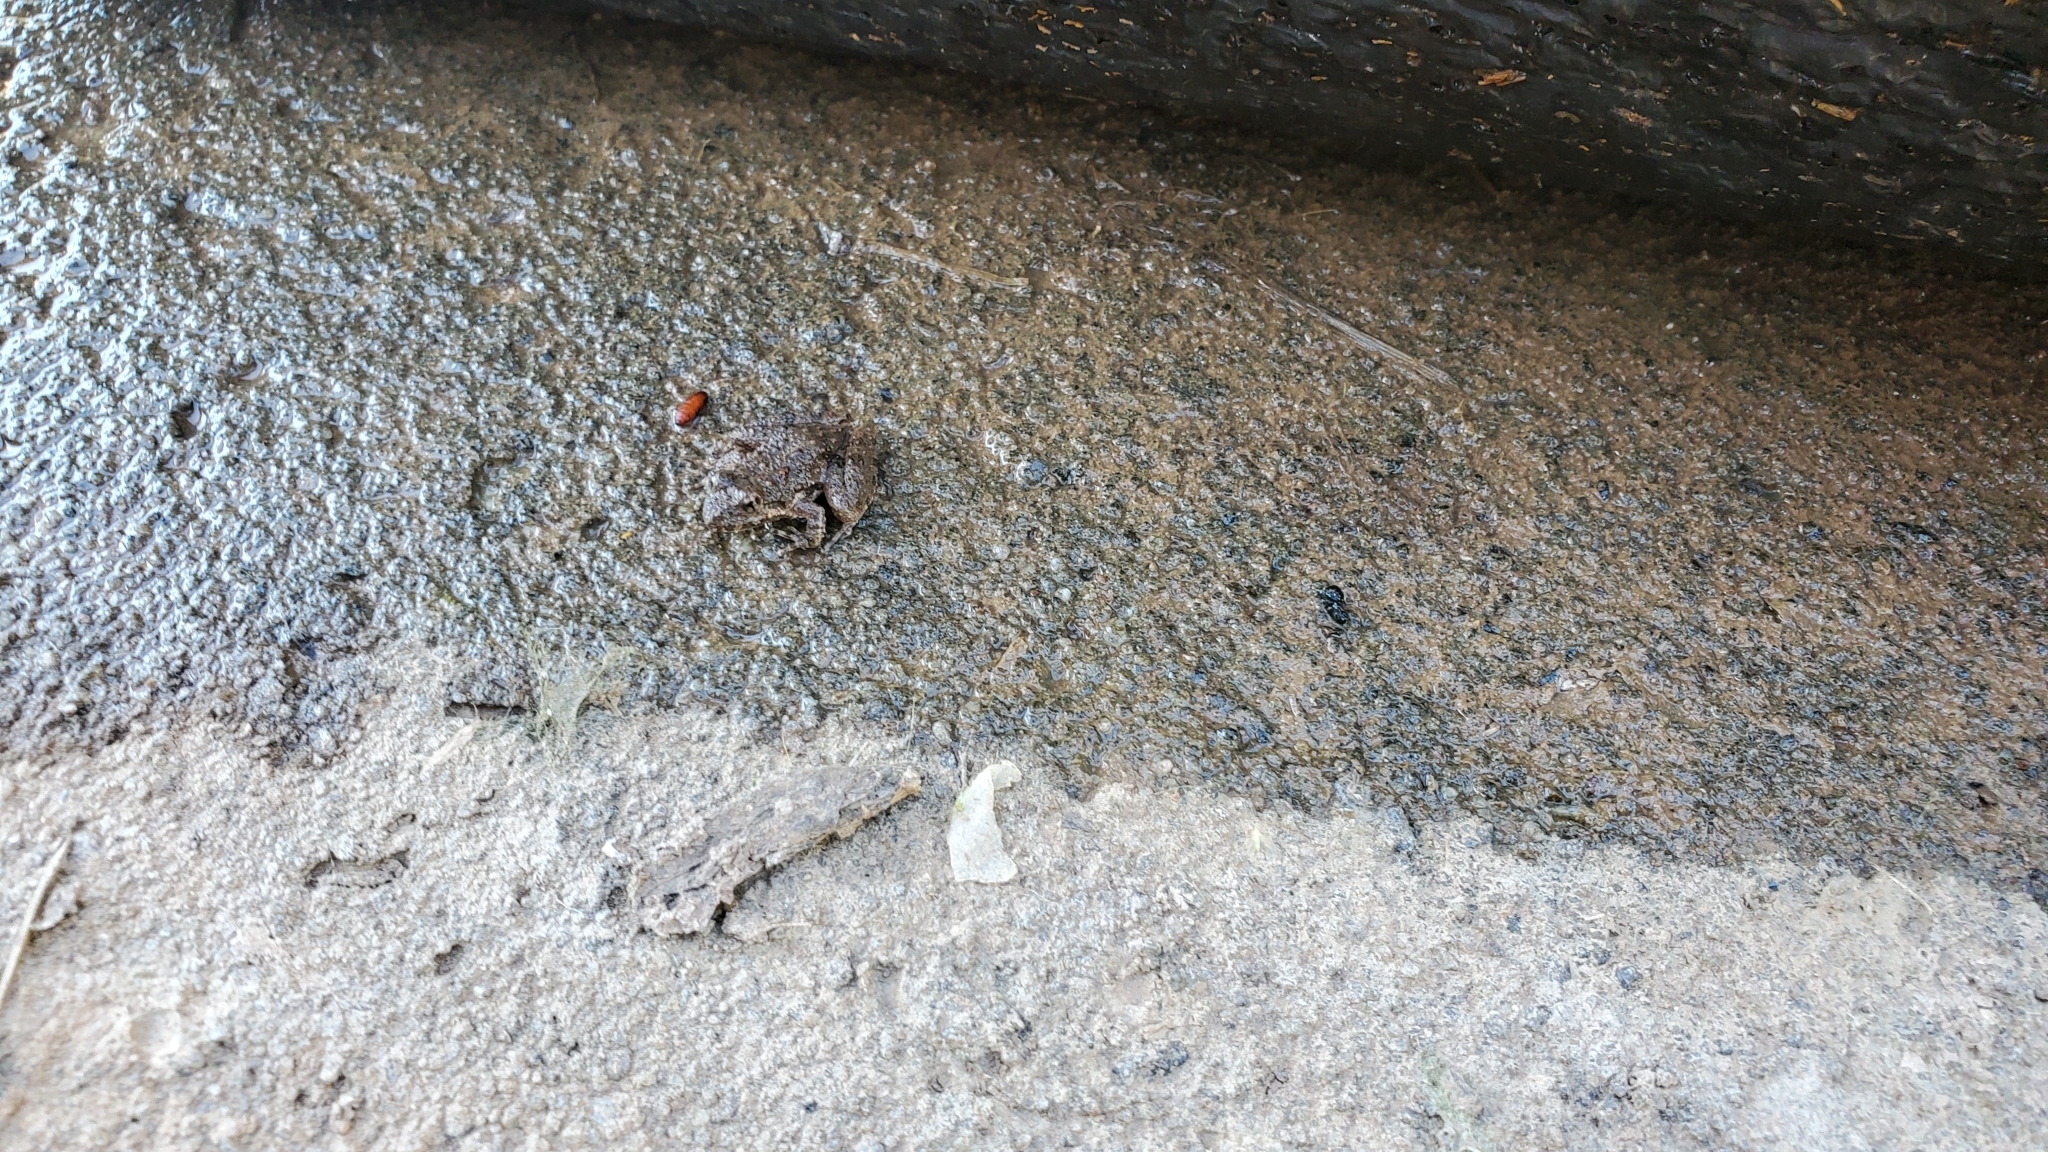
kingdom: Animalia
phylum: Chordata
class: Amphibia
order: Anura
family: Hylidae
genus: Acris
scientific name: Acris blanchardi
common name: Blanchard's cricket frog
